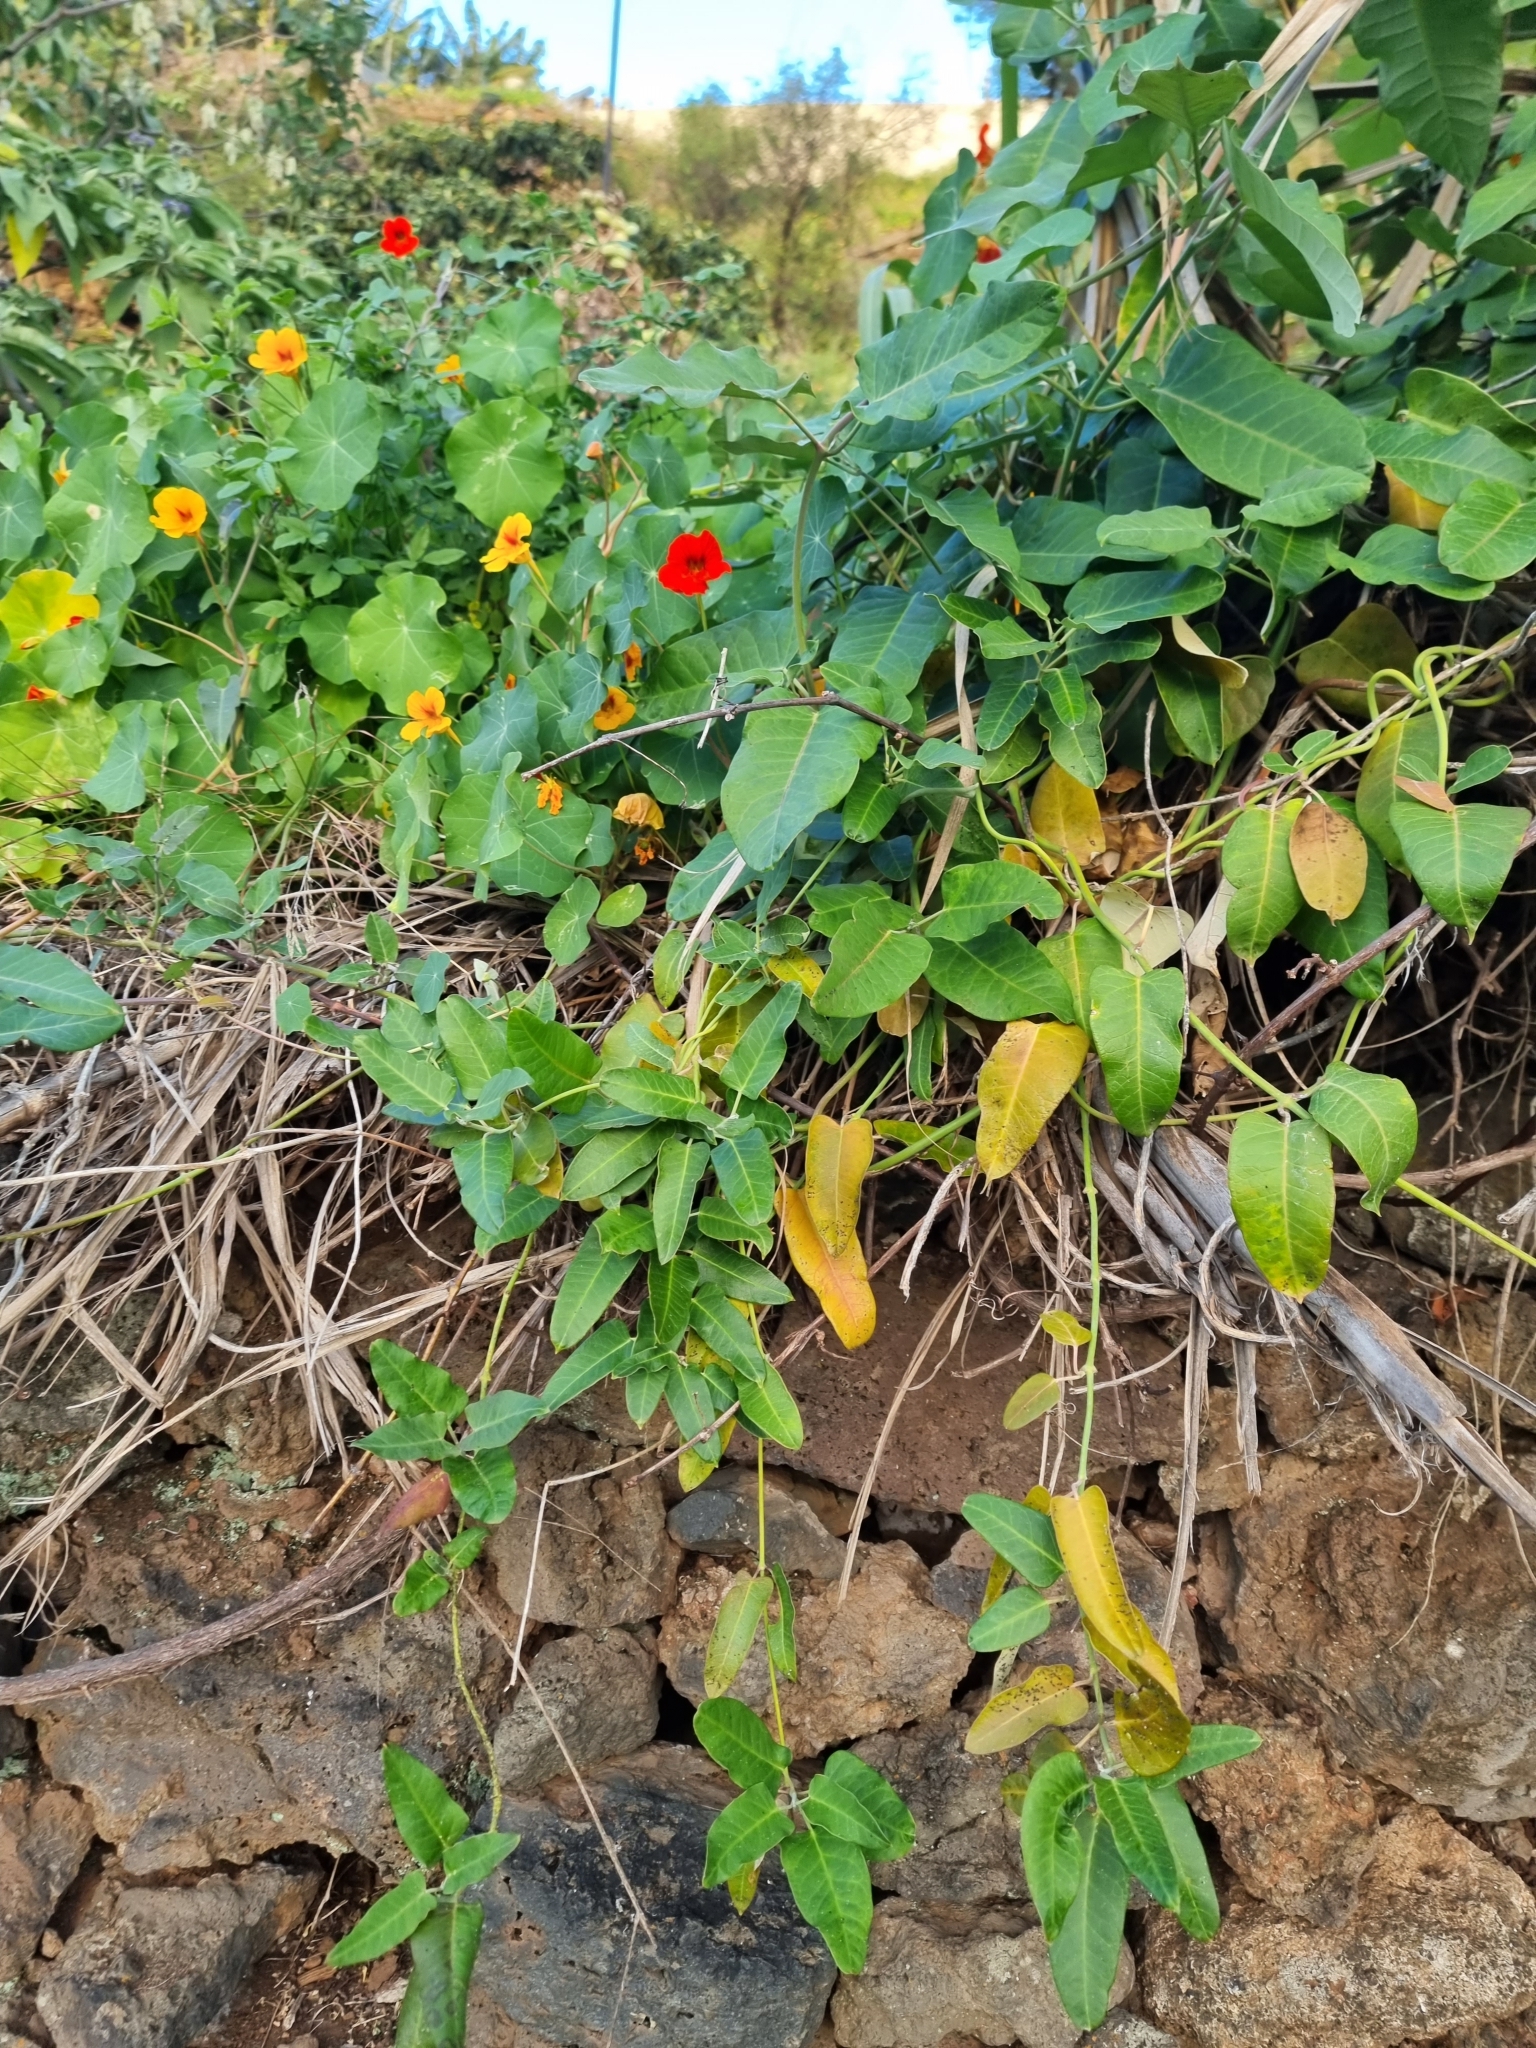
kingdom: Plantae
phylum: Tracheophyta
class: Magnoliopsida
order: Gentianales
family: Apocynaceae
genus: Araujia
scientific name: Araujia sericifera
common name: White bladderflower
